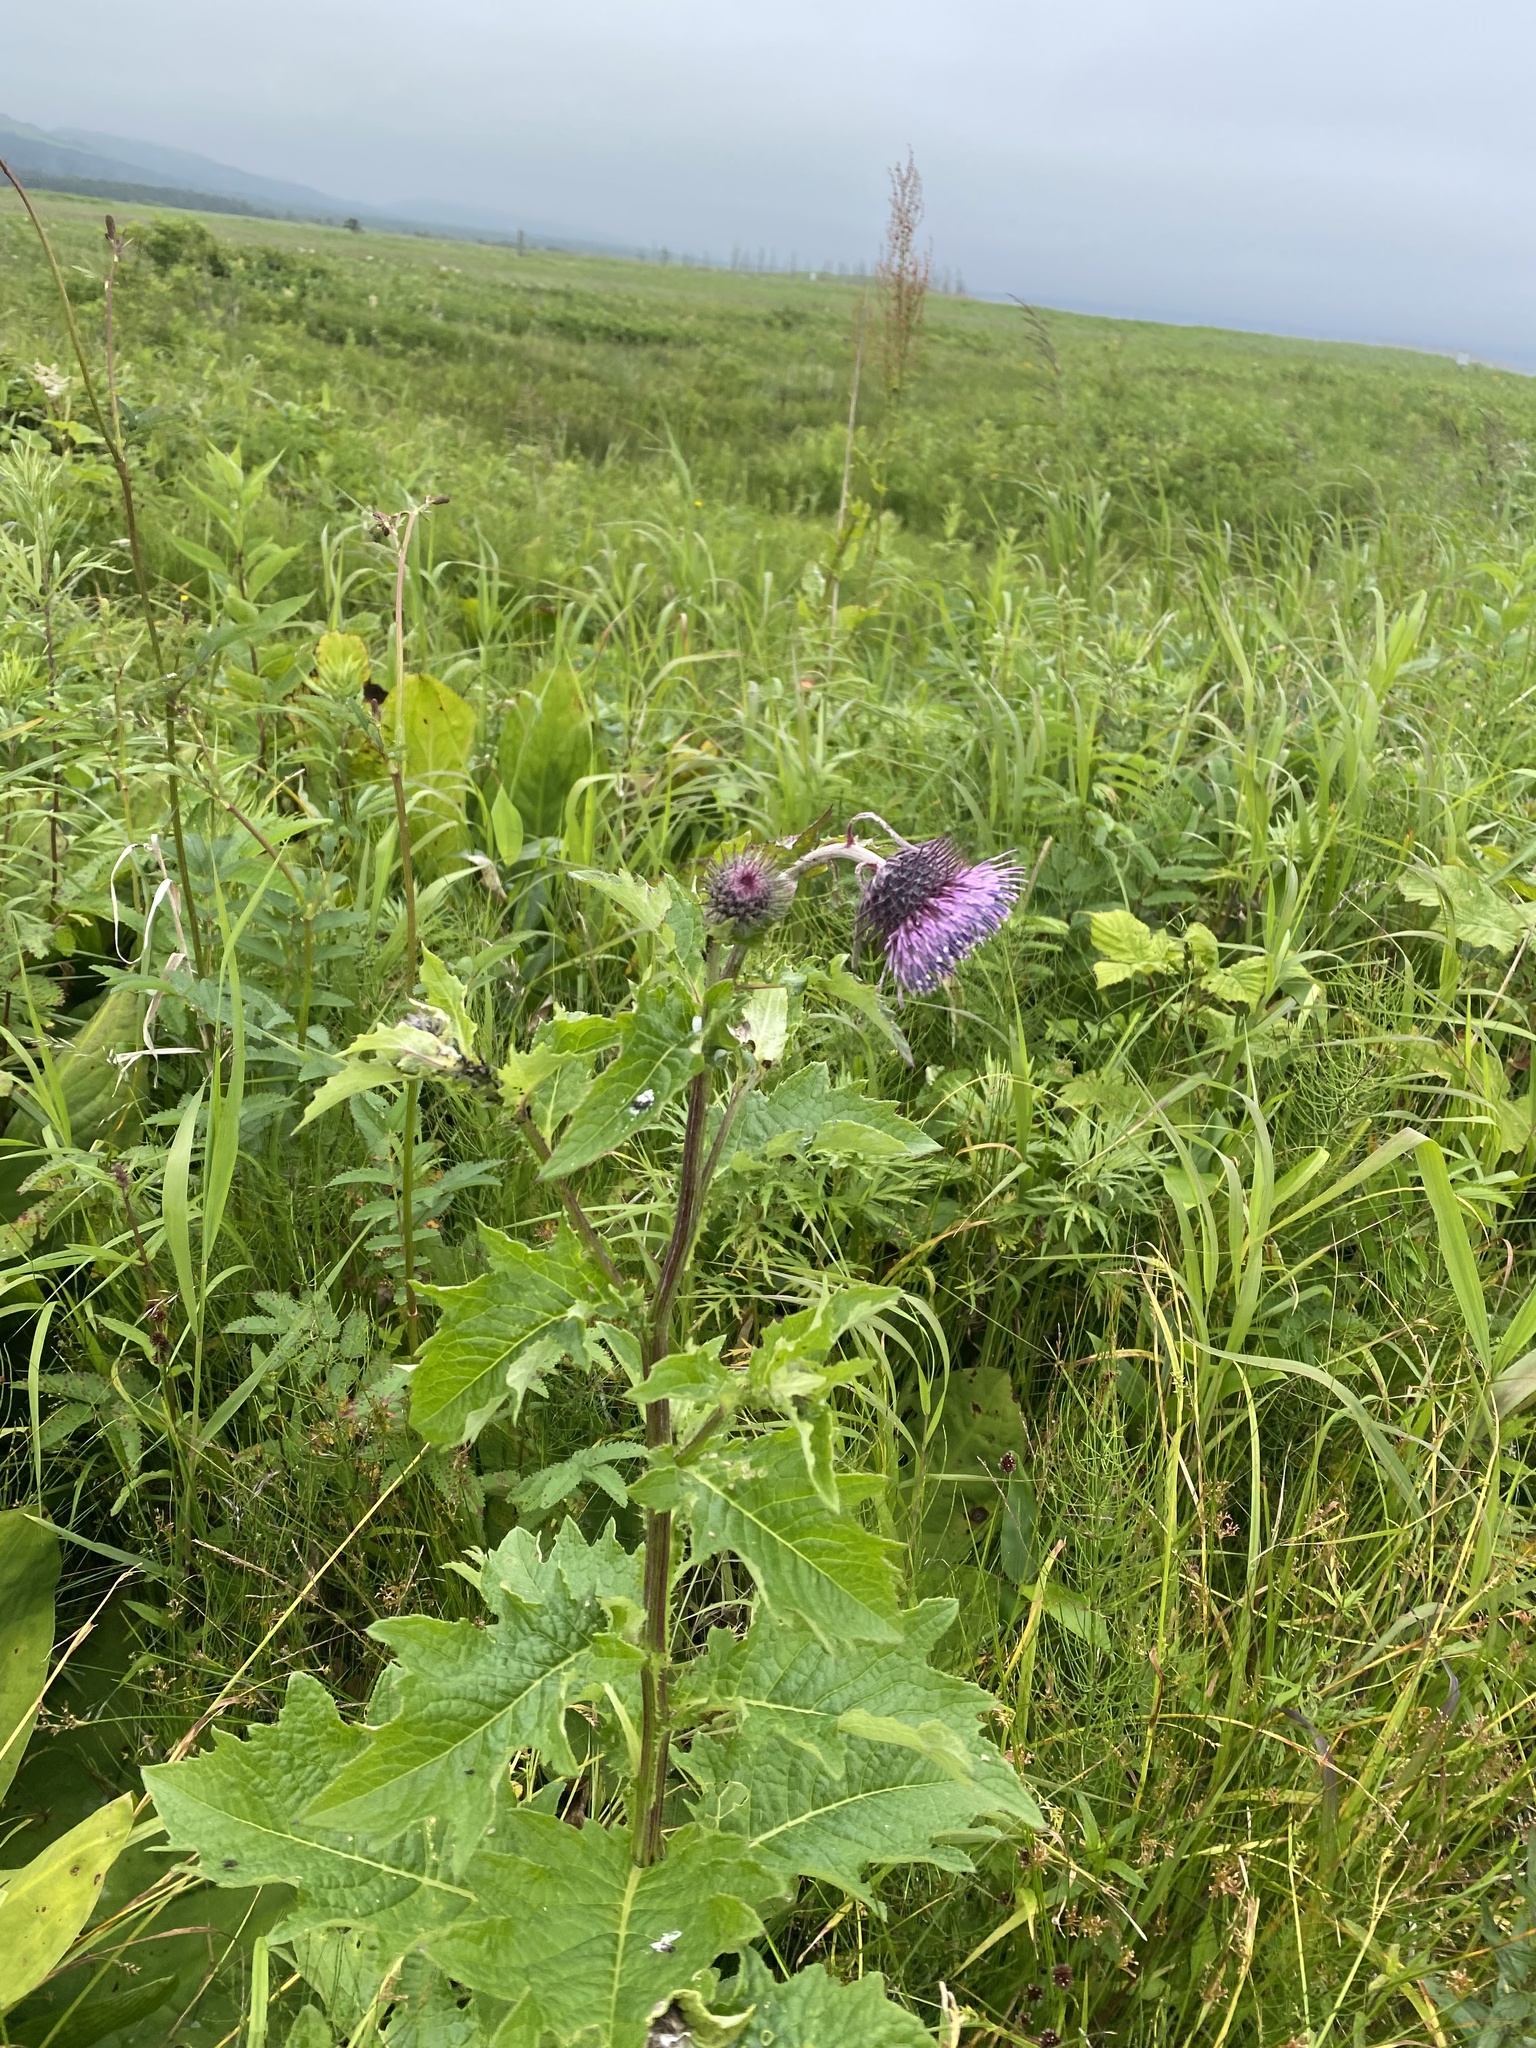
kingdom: Plantae
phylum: Tracheophyta
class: Magnoliopsida
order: Asterales
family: Asteraceae
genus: Cirsium
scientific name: Cirsium kamtschaticum
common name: Kamchatka thistle
